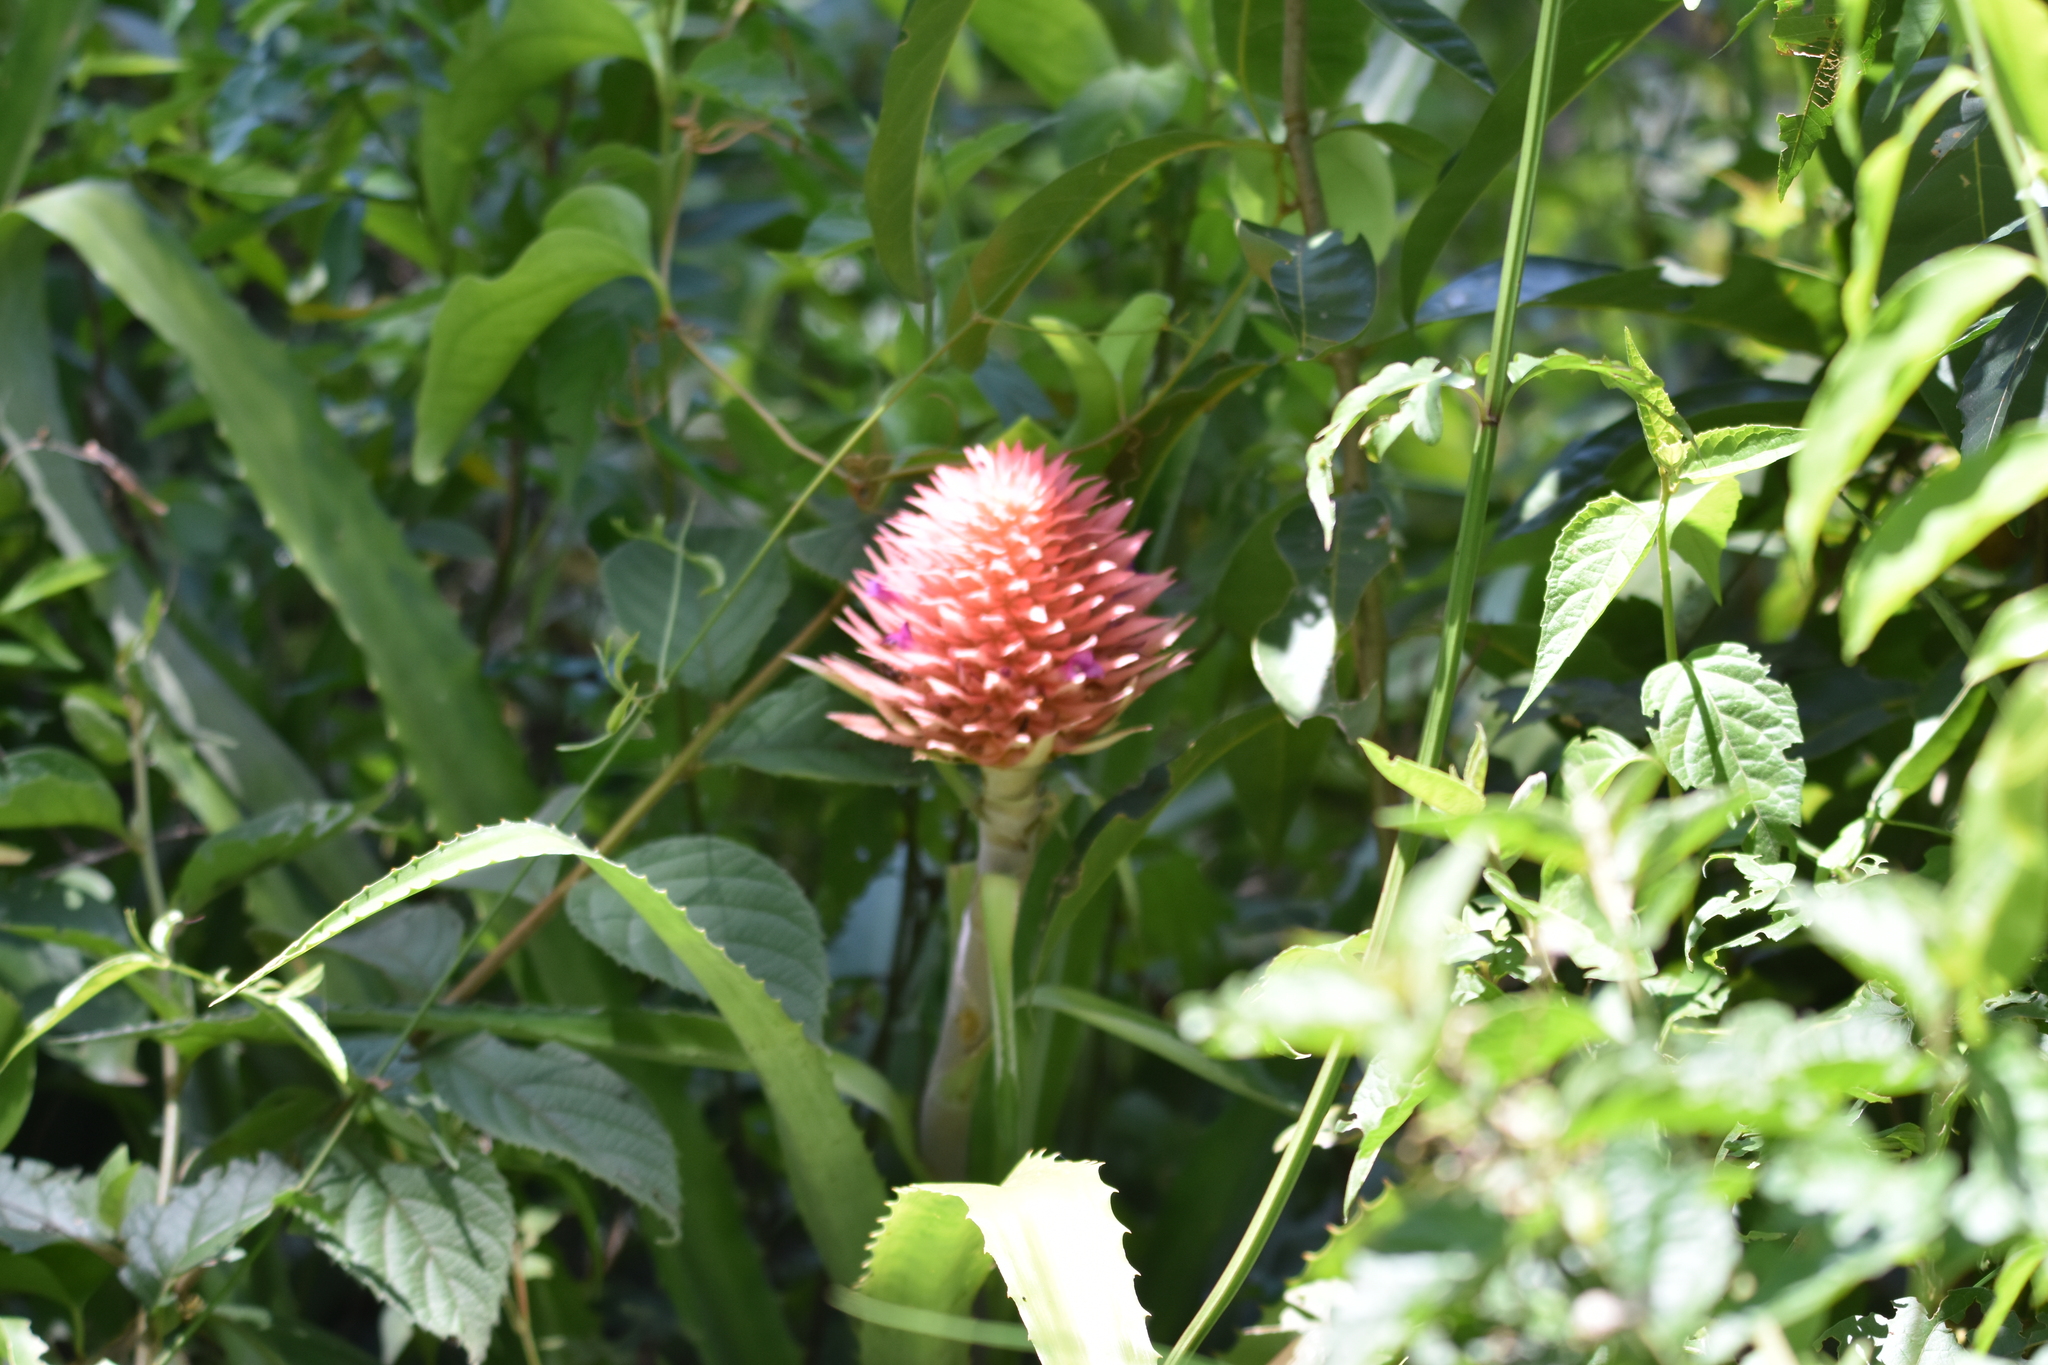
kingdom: Plantae
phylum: Tracheophyta
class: Liliopsida
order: Poales
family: Bromeliaceae
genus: Ananas
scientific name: Ananas macrodontes
